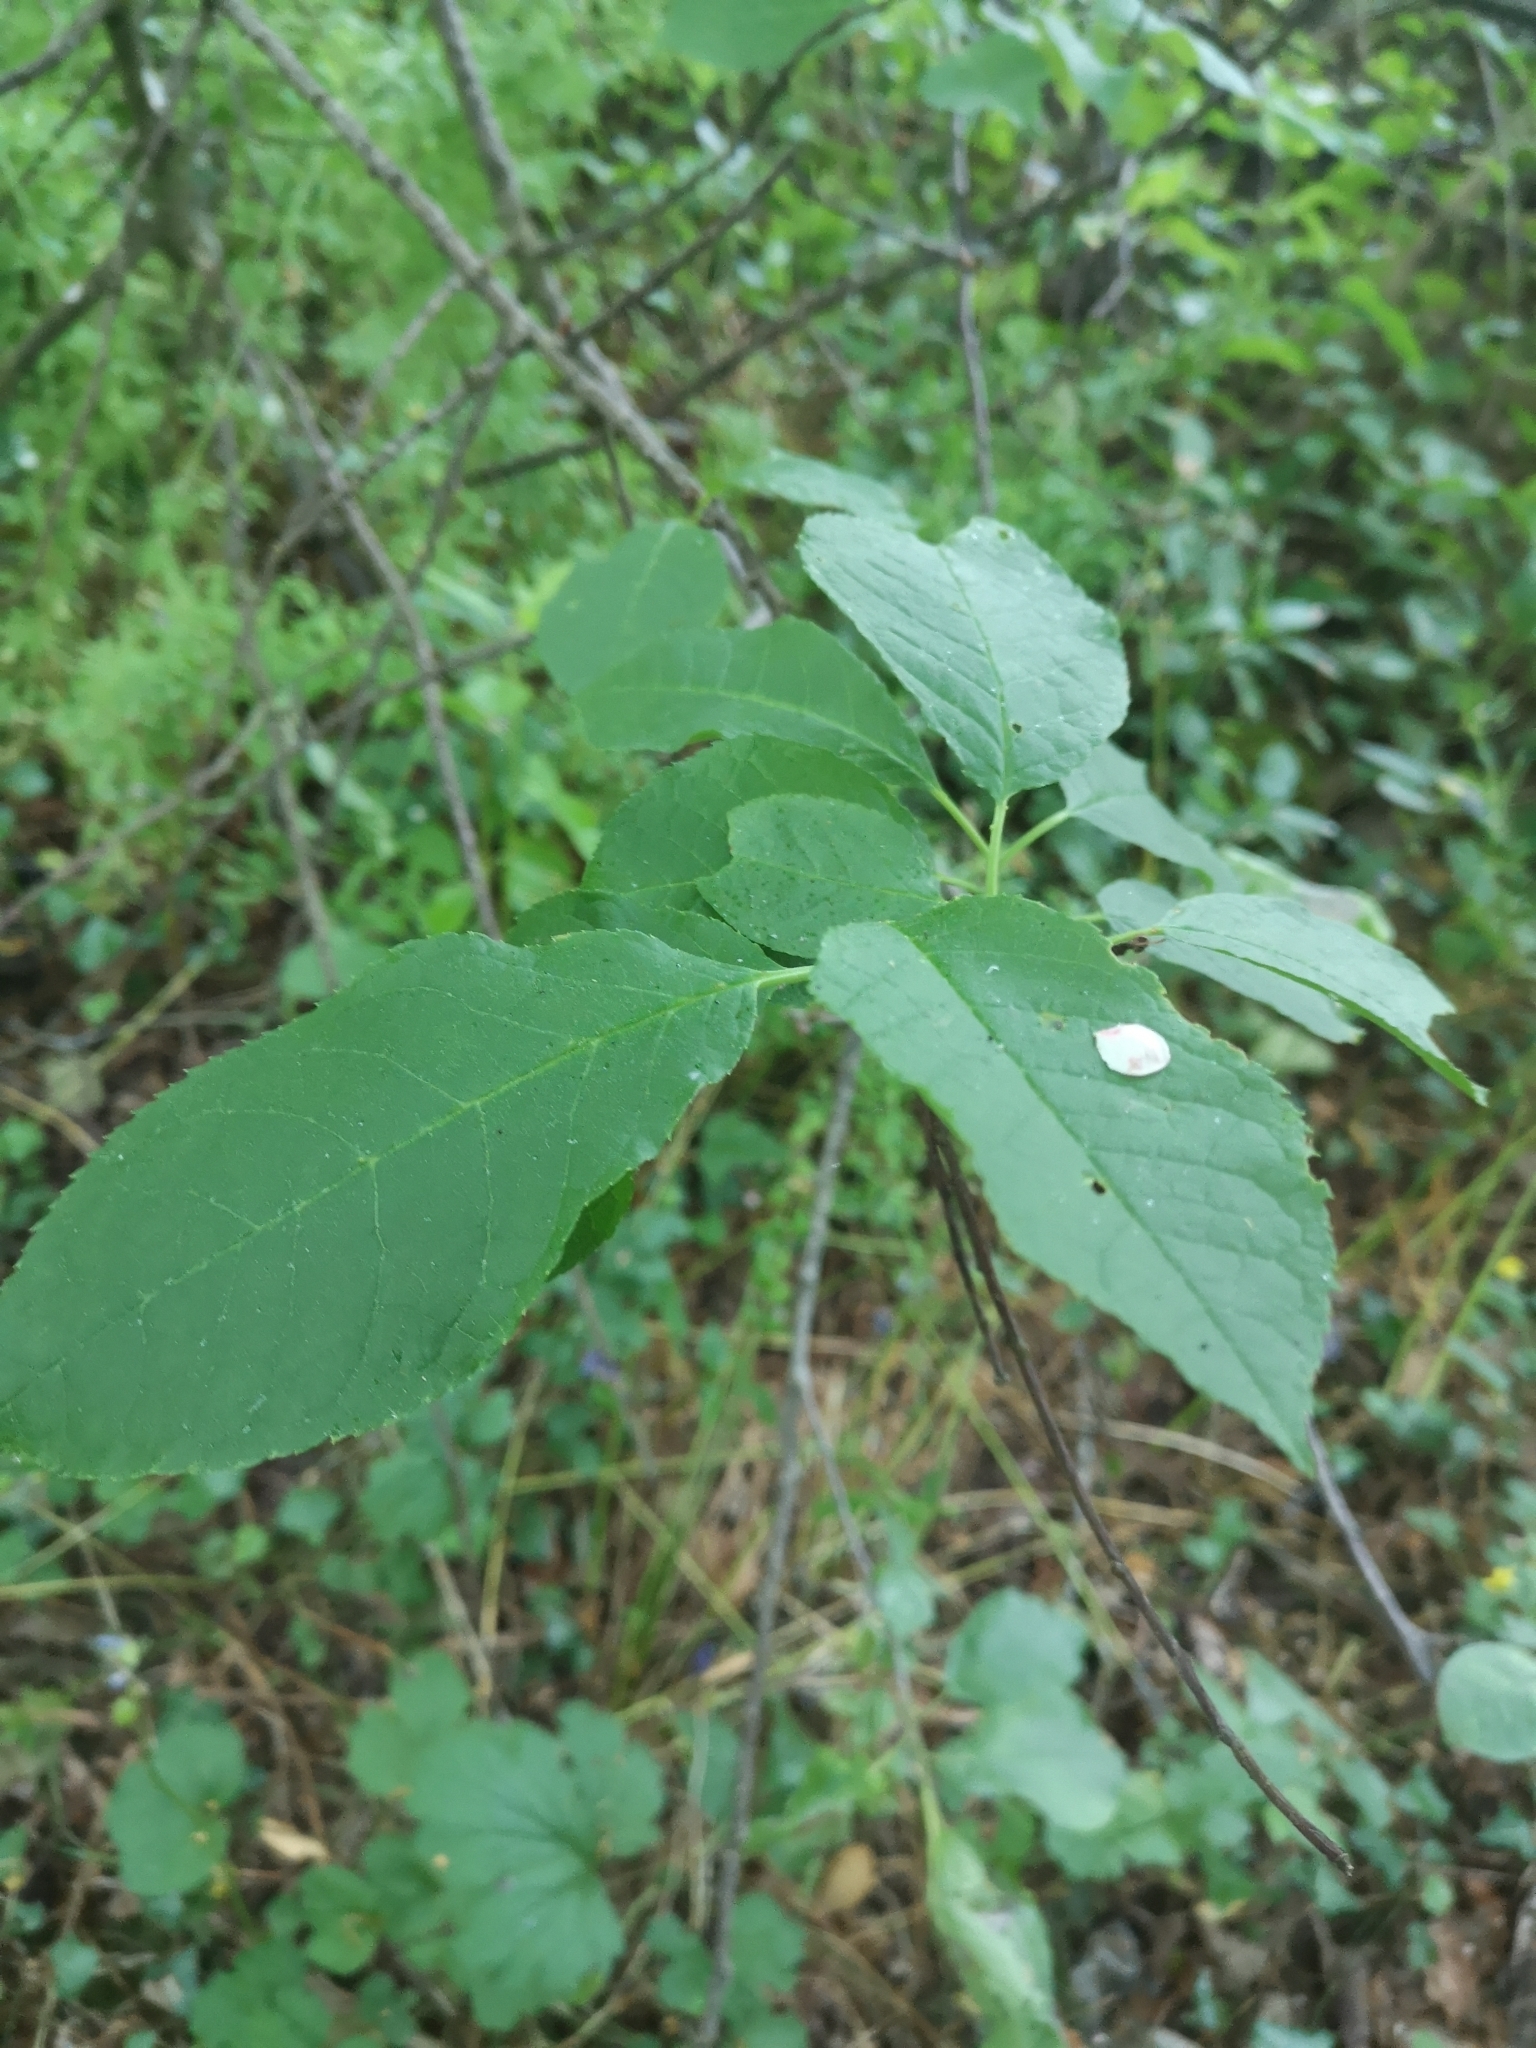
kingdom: Plantae
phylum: Tracheophyta
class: Magnoliopsida
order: Rosales
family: Rosaceae
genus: Prunus
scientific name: Prunus padus
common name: Bird cherry
